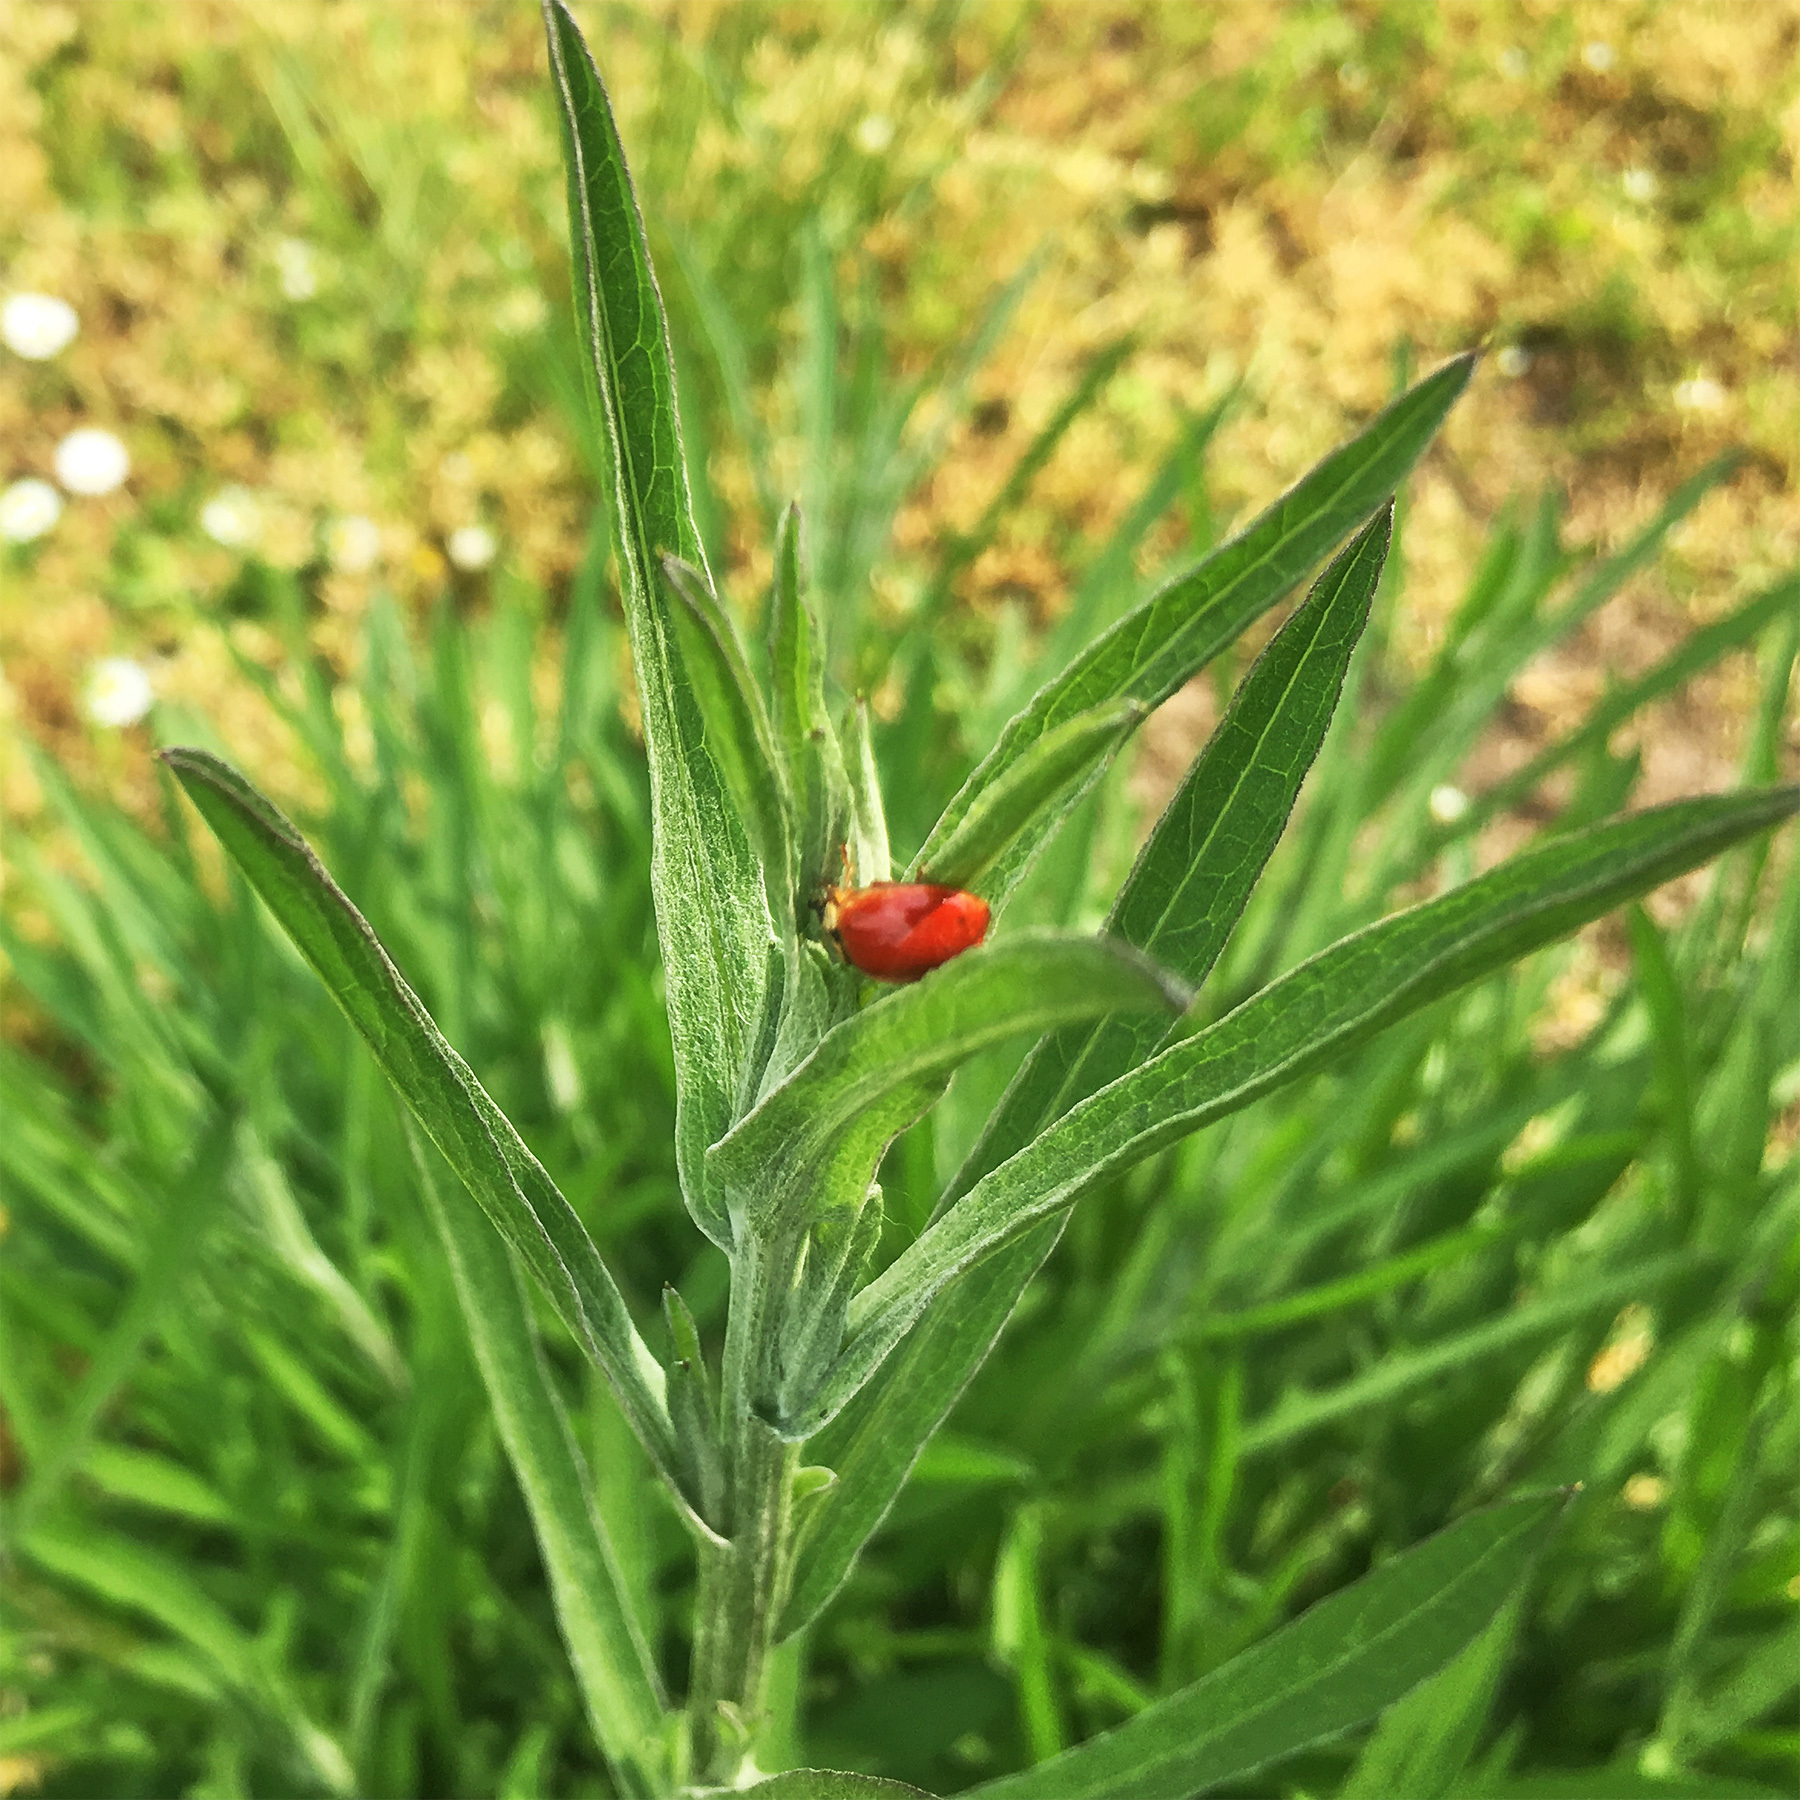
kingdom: Animalia
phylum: Arthropoda
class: Insecta
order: Coleoptera
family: Coccinellidae
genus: Harmonia
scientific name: Harmonia axyridis
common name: Harlequin ladybird
